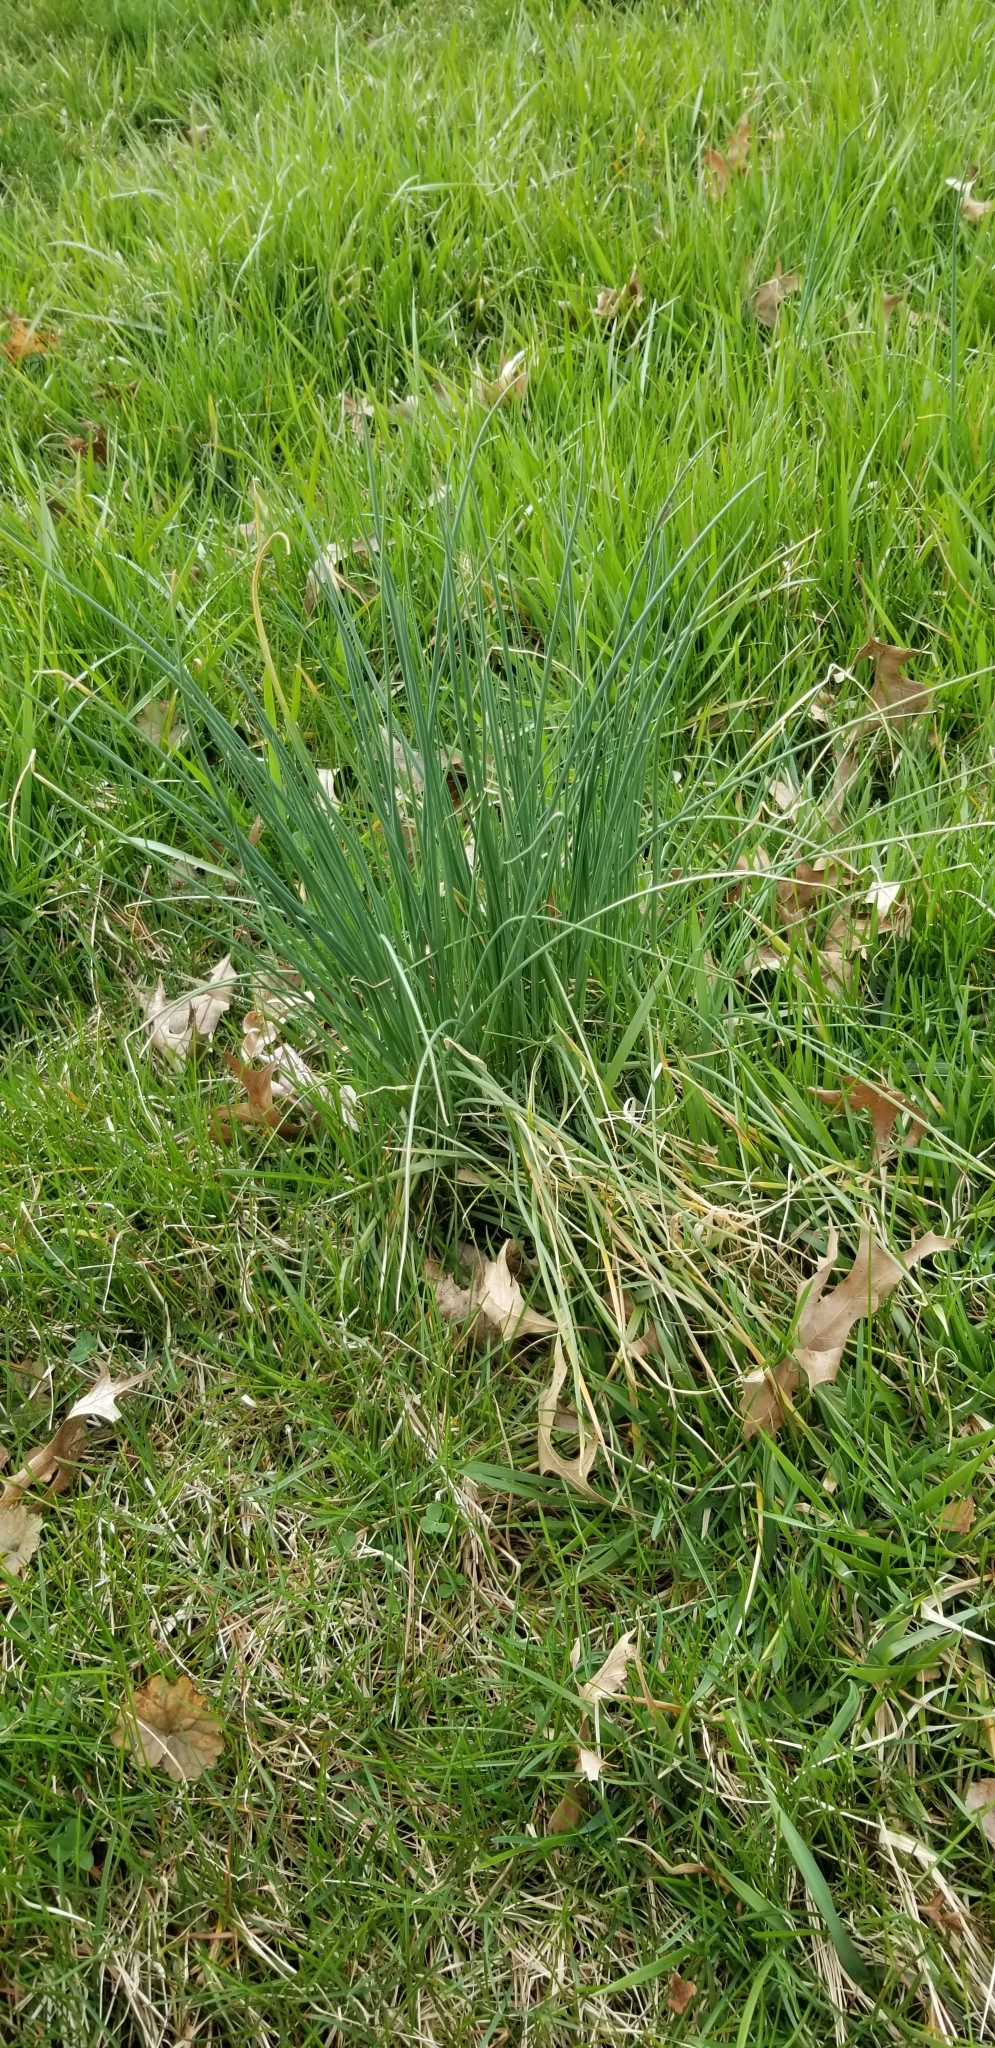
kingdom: Plantae
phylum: Tracheophyta
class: Liliopsida
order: Asparagales
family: Amaryllidaceae
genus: Allium
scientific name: Allium vineale
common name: Crow garlic
